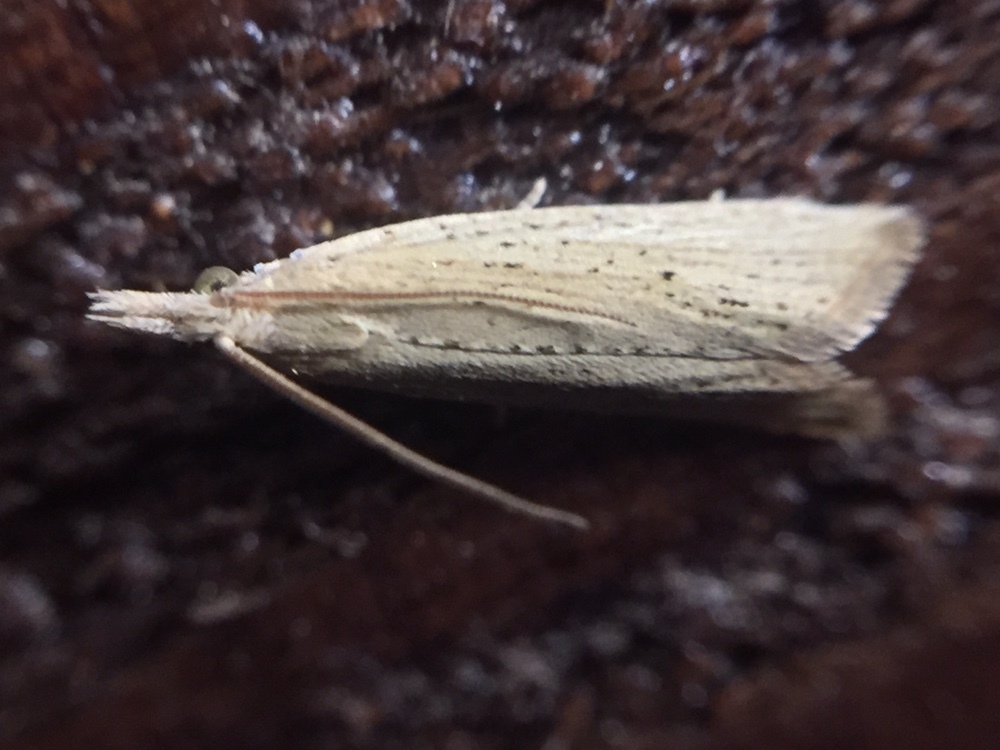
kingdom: Animalia
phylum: Arthropoda
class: Insecta
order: Lepidoptera
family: Tortricidae
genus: Bactra
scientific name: Bactra noteraula
